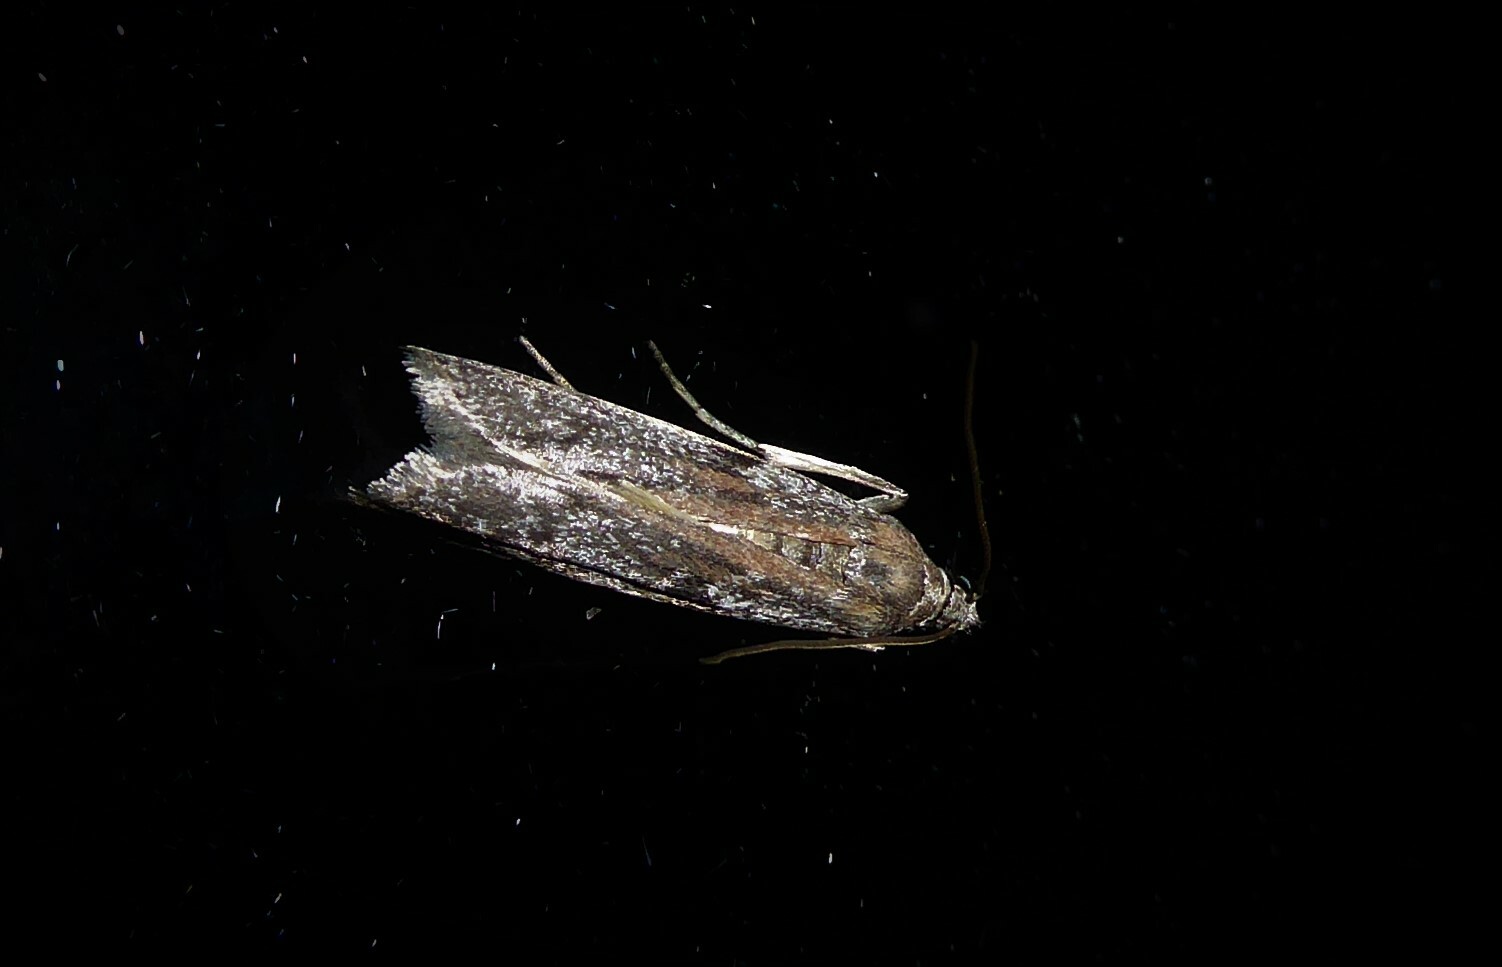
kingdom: Animalia
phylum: Arthropoda
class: Insecta
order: Lepidoptera
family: Pyralidae
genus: Patagoniodes
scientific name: Patagoniodes farinaria
